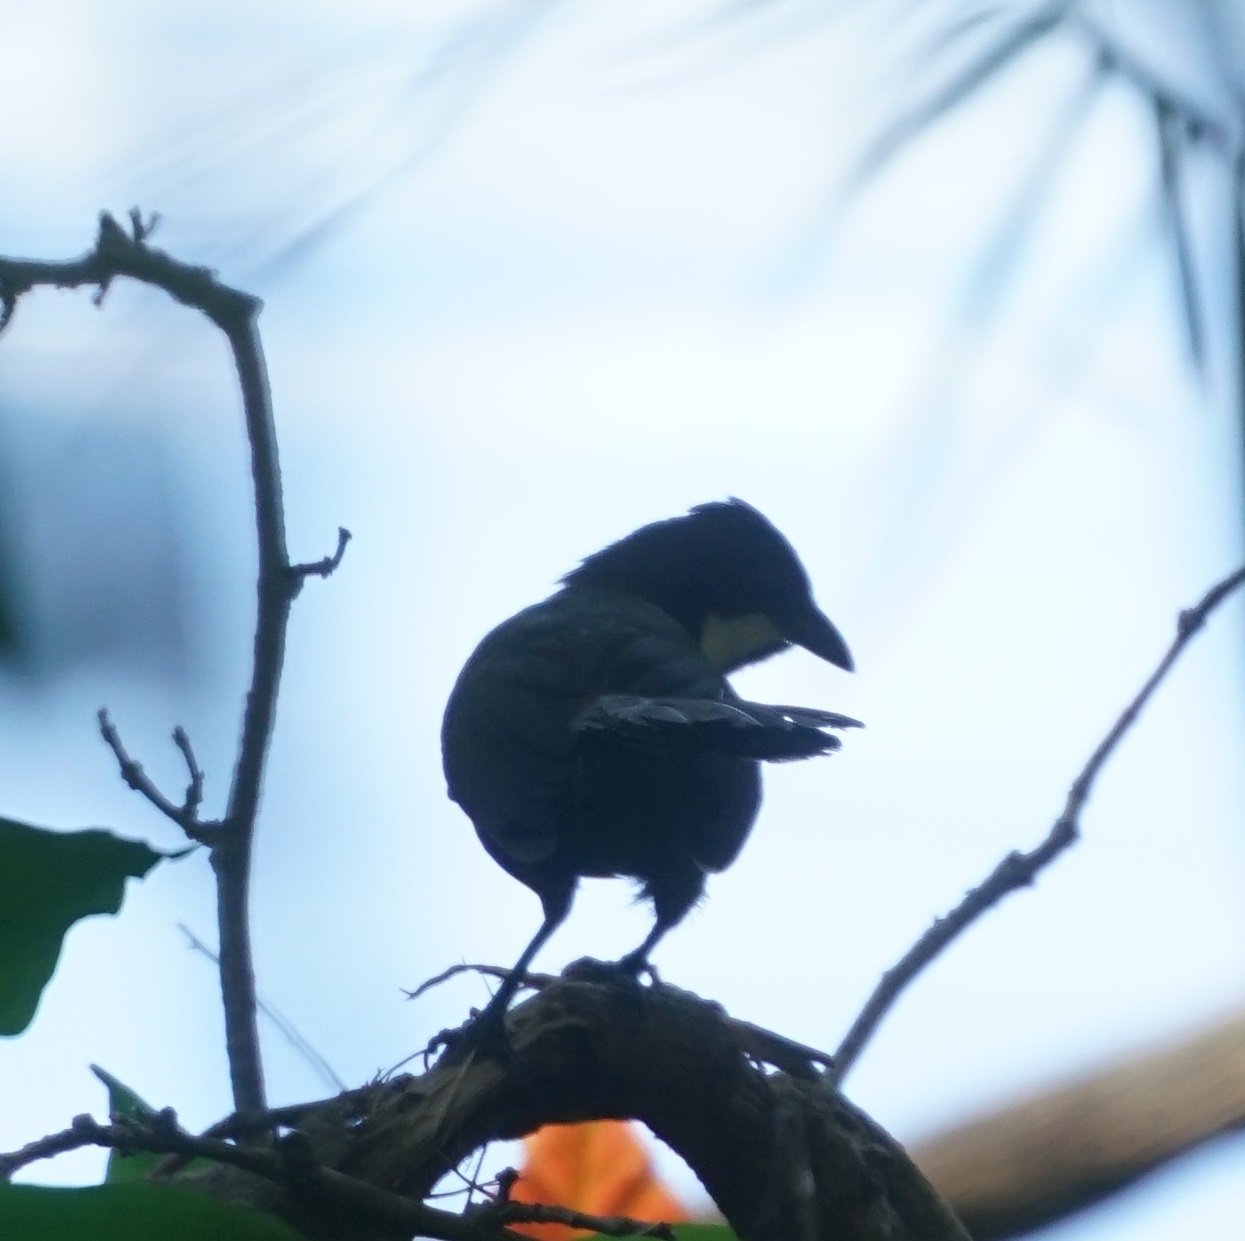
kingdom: Animalia
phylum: Chordata
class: Aves
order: Passeriformes
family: Psophodidae
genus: Psophodes
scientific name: Psophodes olivaceus
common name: Eastern whipbird
